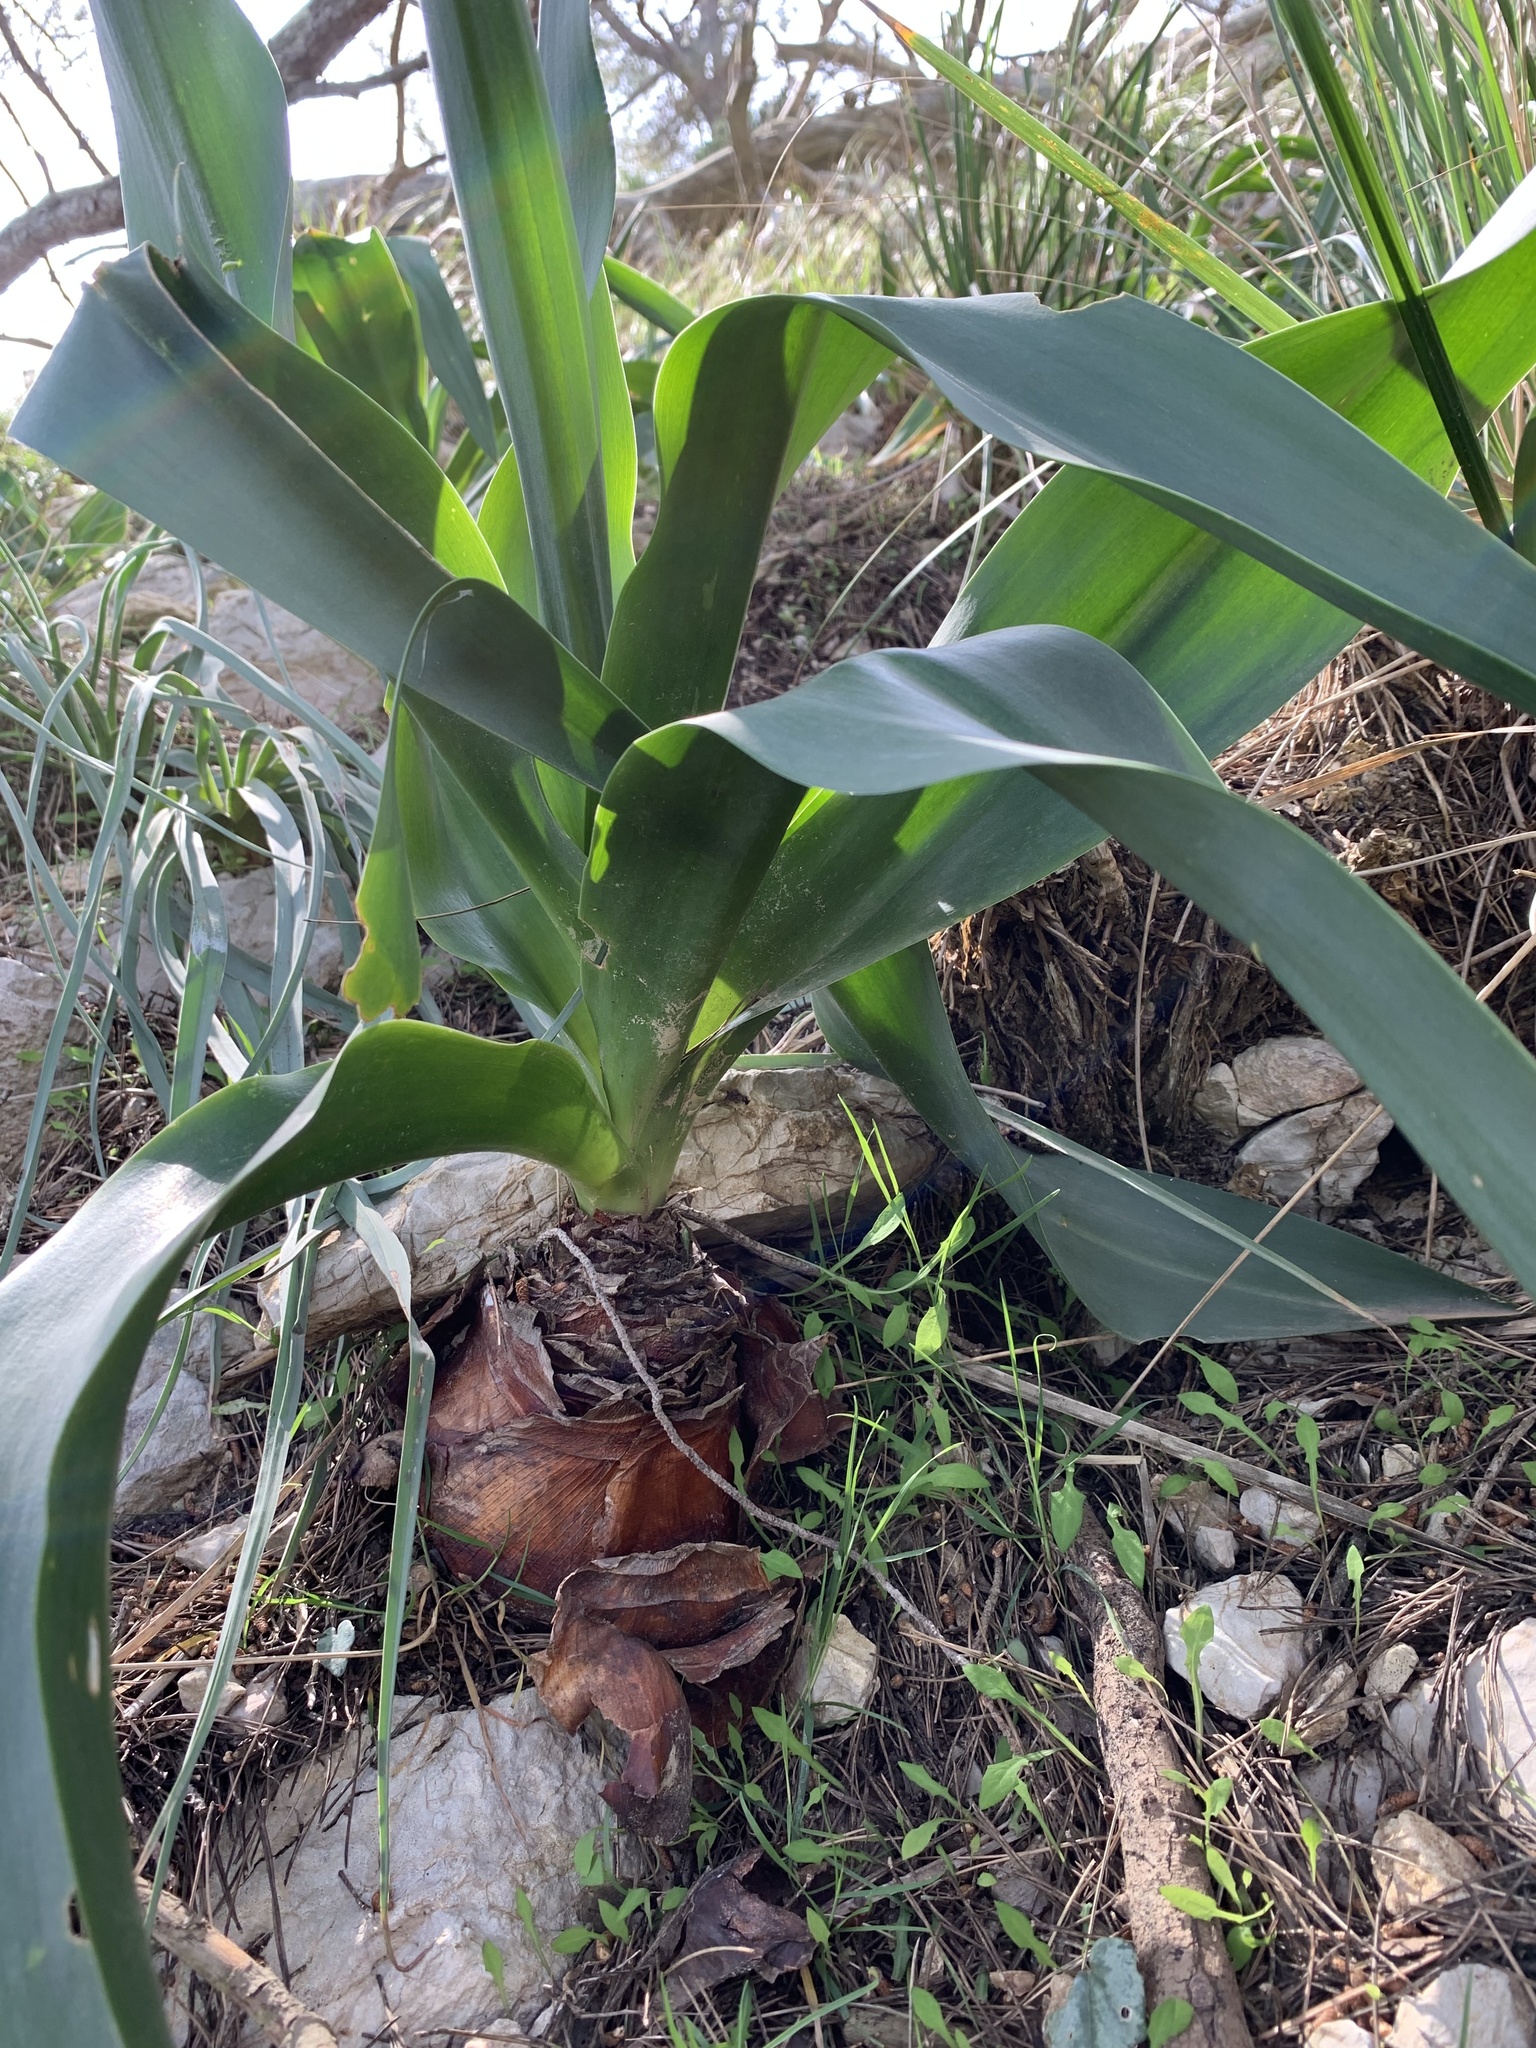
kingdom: Plantae
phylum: Tracheophyta
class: Liliopsida
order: Asparagales
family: Asparagaceae
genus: Drimia
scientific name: Drimia numidica
